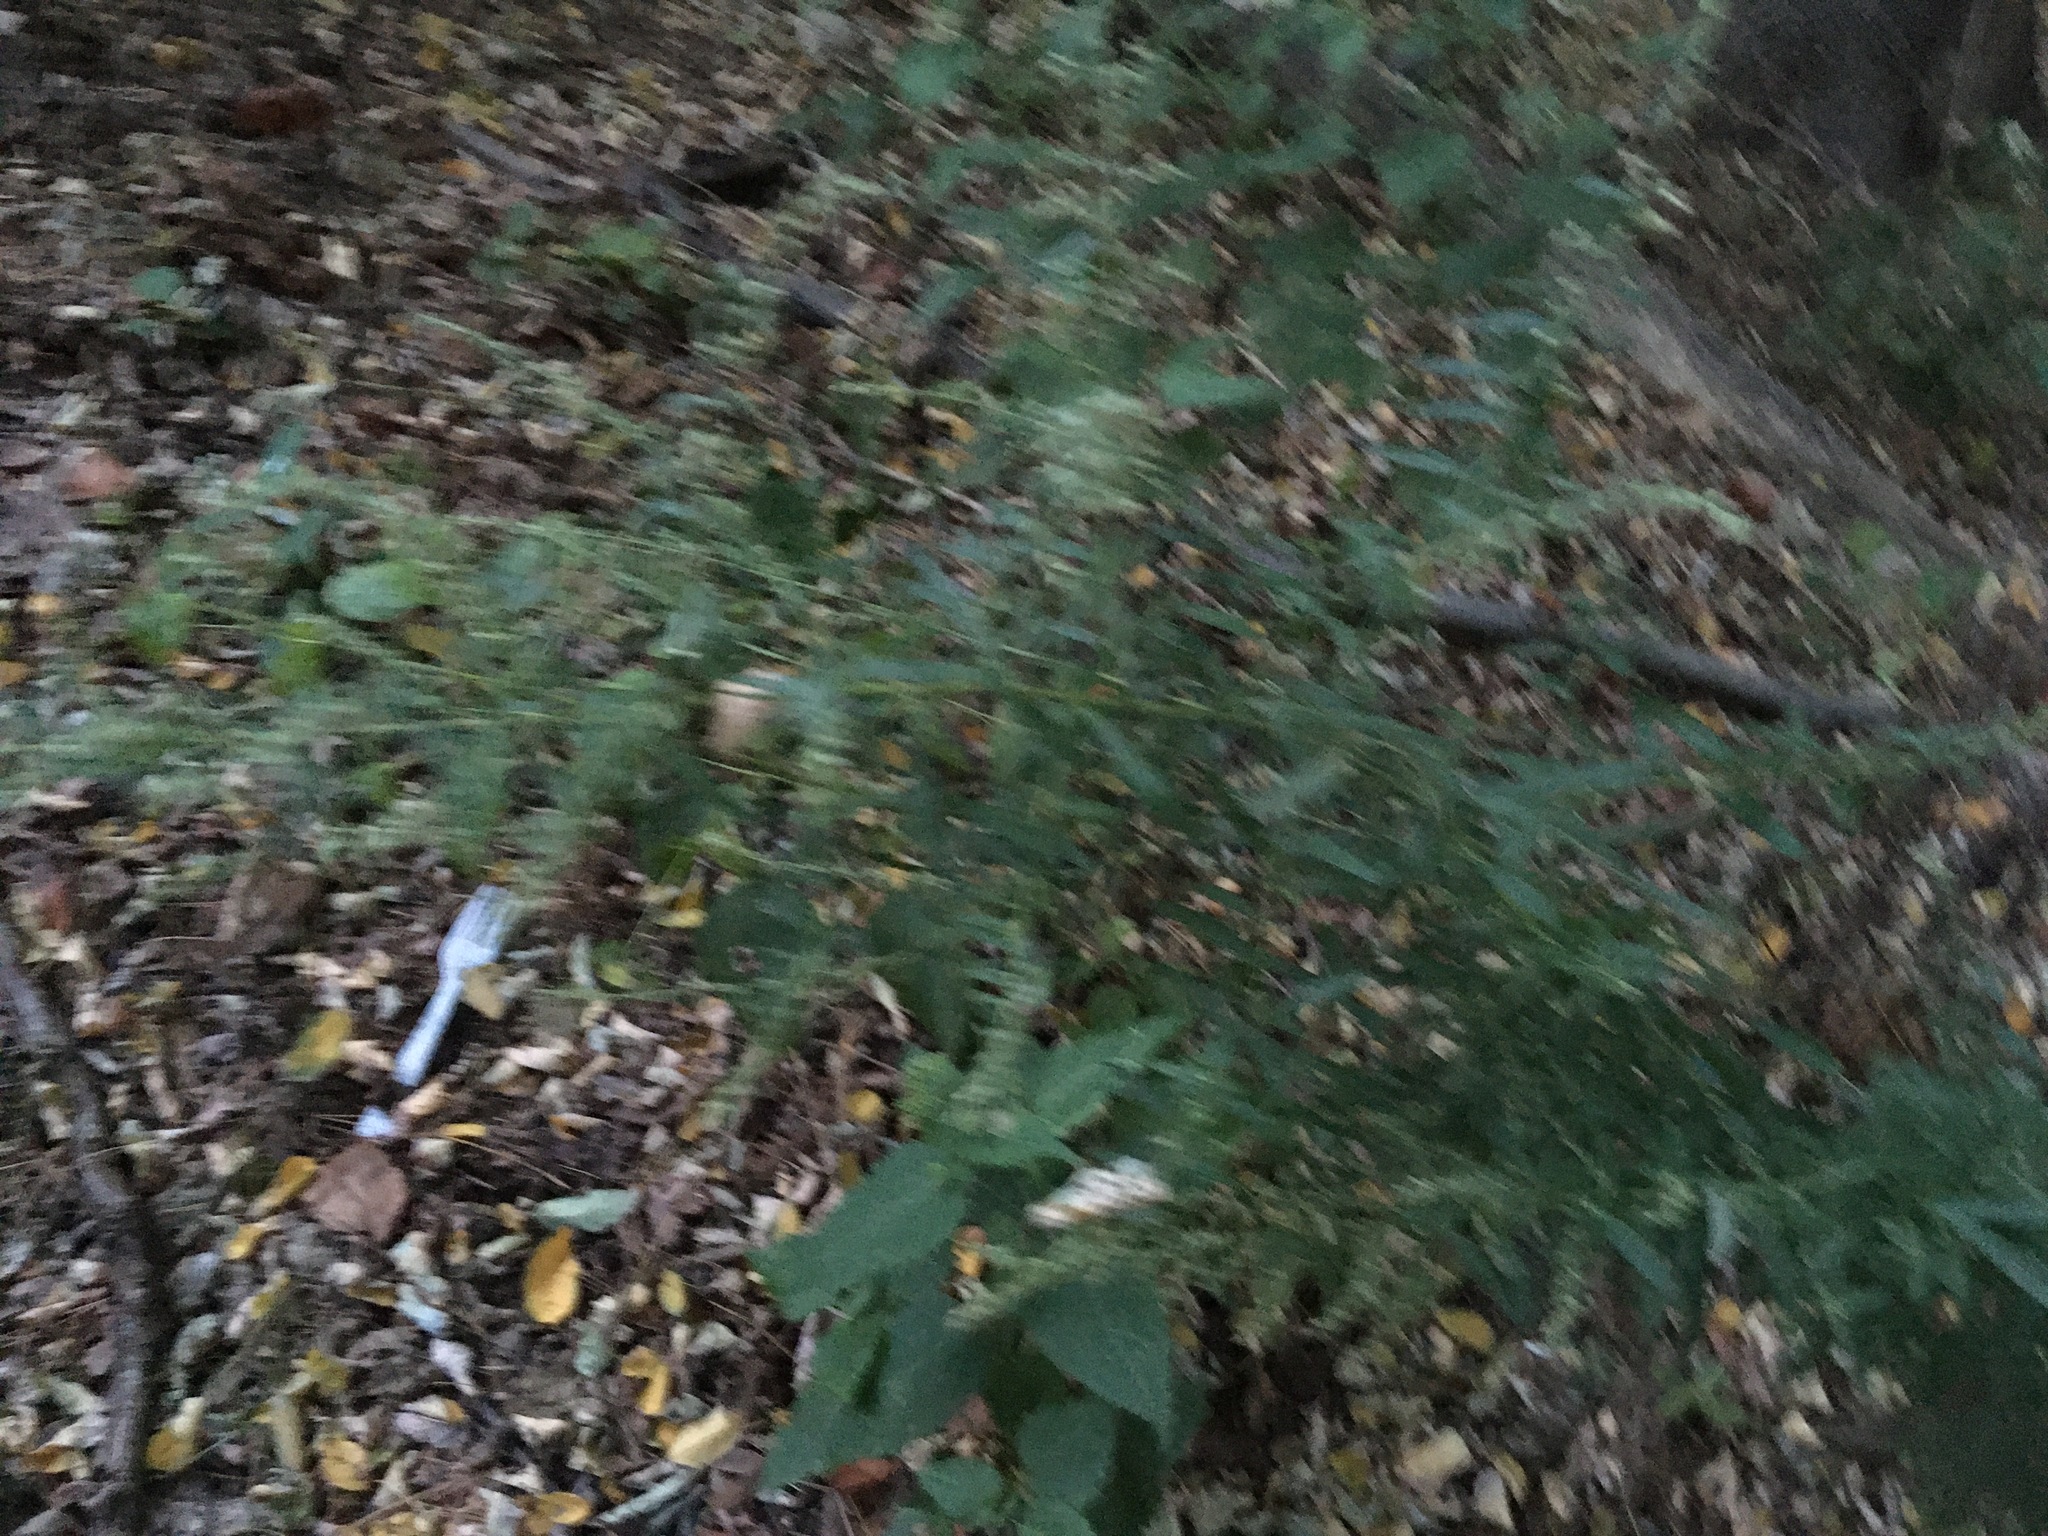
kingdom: Plantae
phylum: Tracheophyta
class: Magnoliopsida
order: Asterales
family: Asteraceae
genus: Artemisia
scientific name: Artemisia vulgaris
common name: Mugwort
